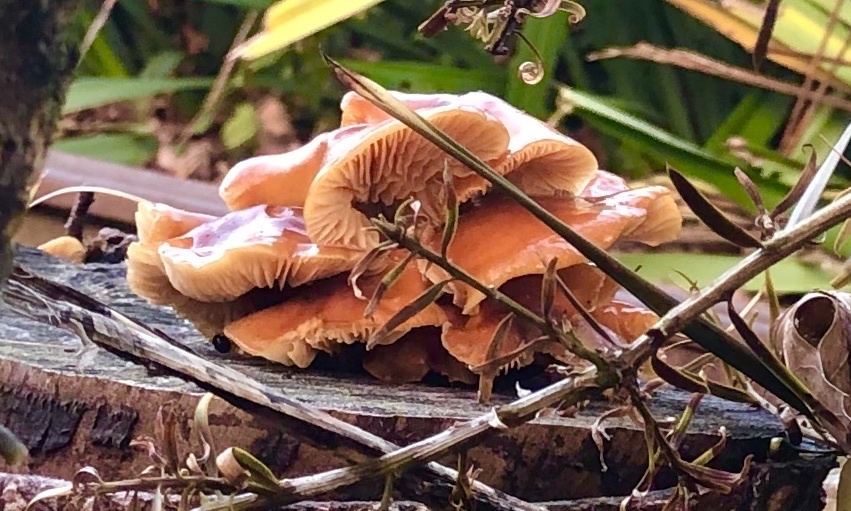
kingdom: Fungi
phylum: Basidiomycota
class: Agaricomycetes
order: Agaricales
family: Physalacriaceae
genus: Flammulina
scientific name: Flammulina velutipes
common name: Velvet shank
